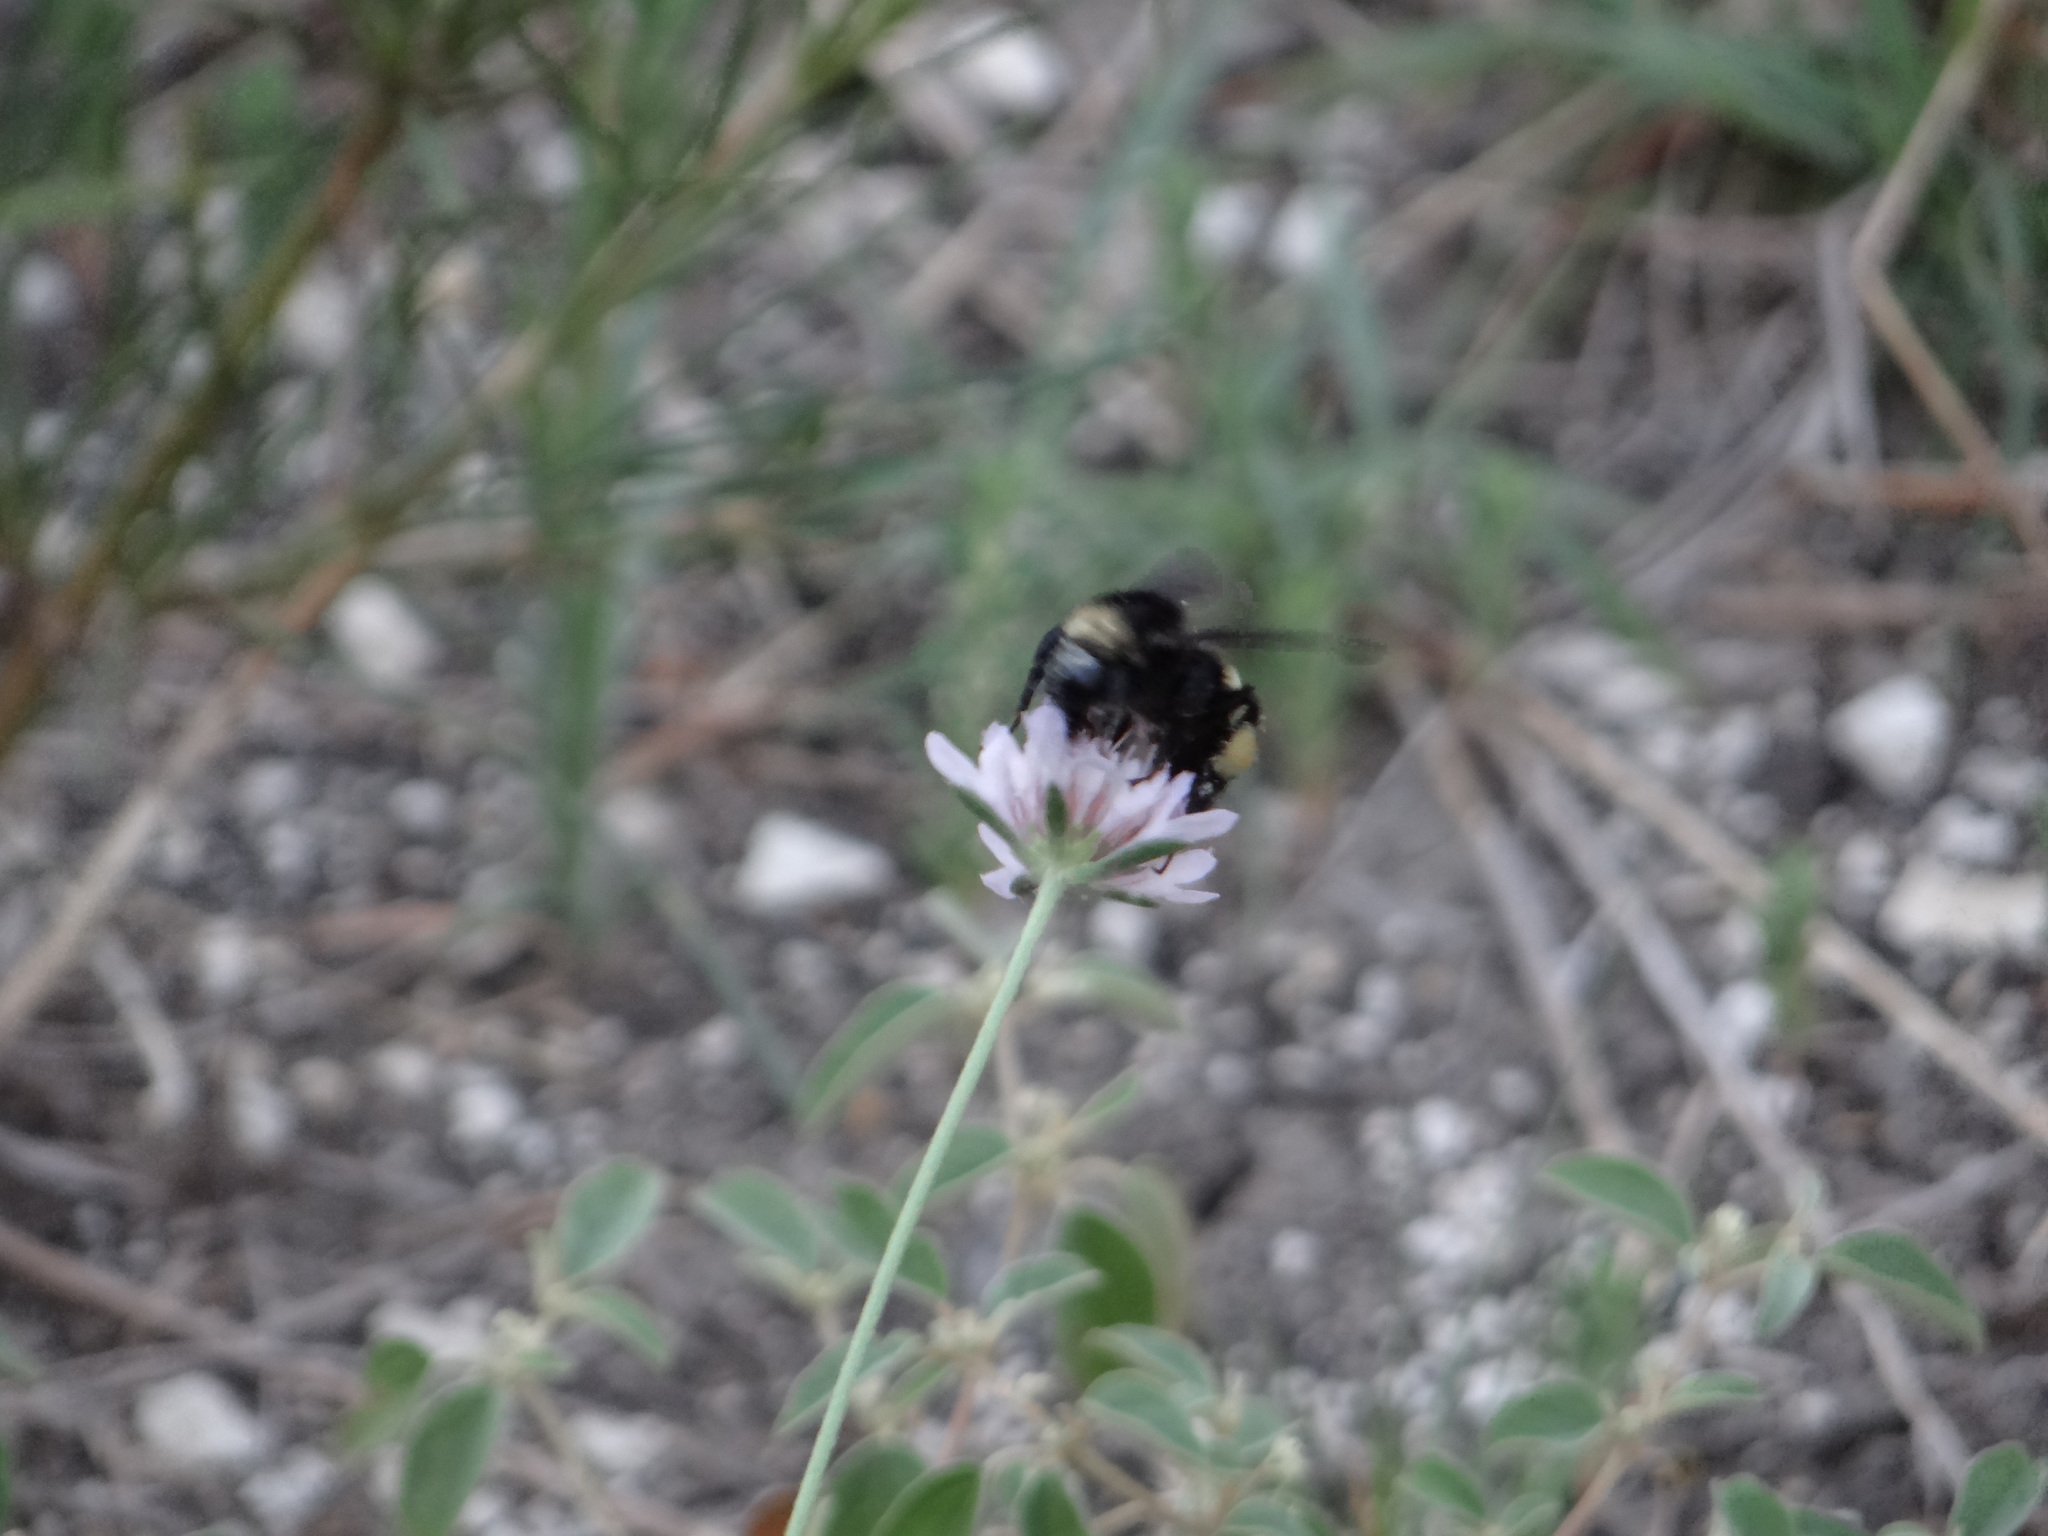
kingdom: Animalia
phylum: Arthropoda
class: Insecta
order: Hymenoptera
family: Apidae
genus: Bombus
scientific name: Bombus pensylvanicus
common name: Bumble bee
